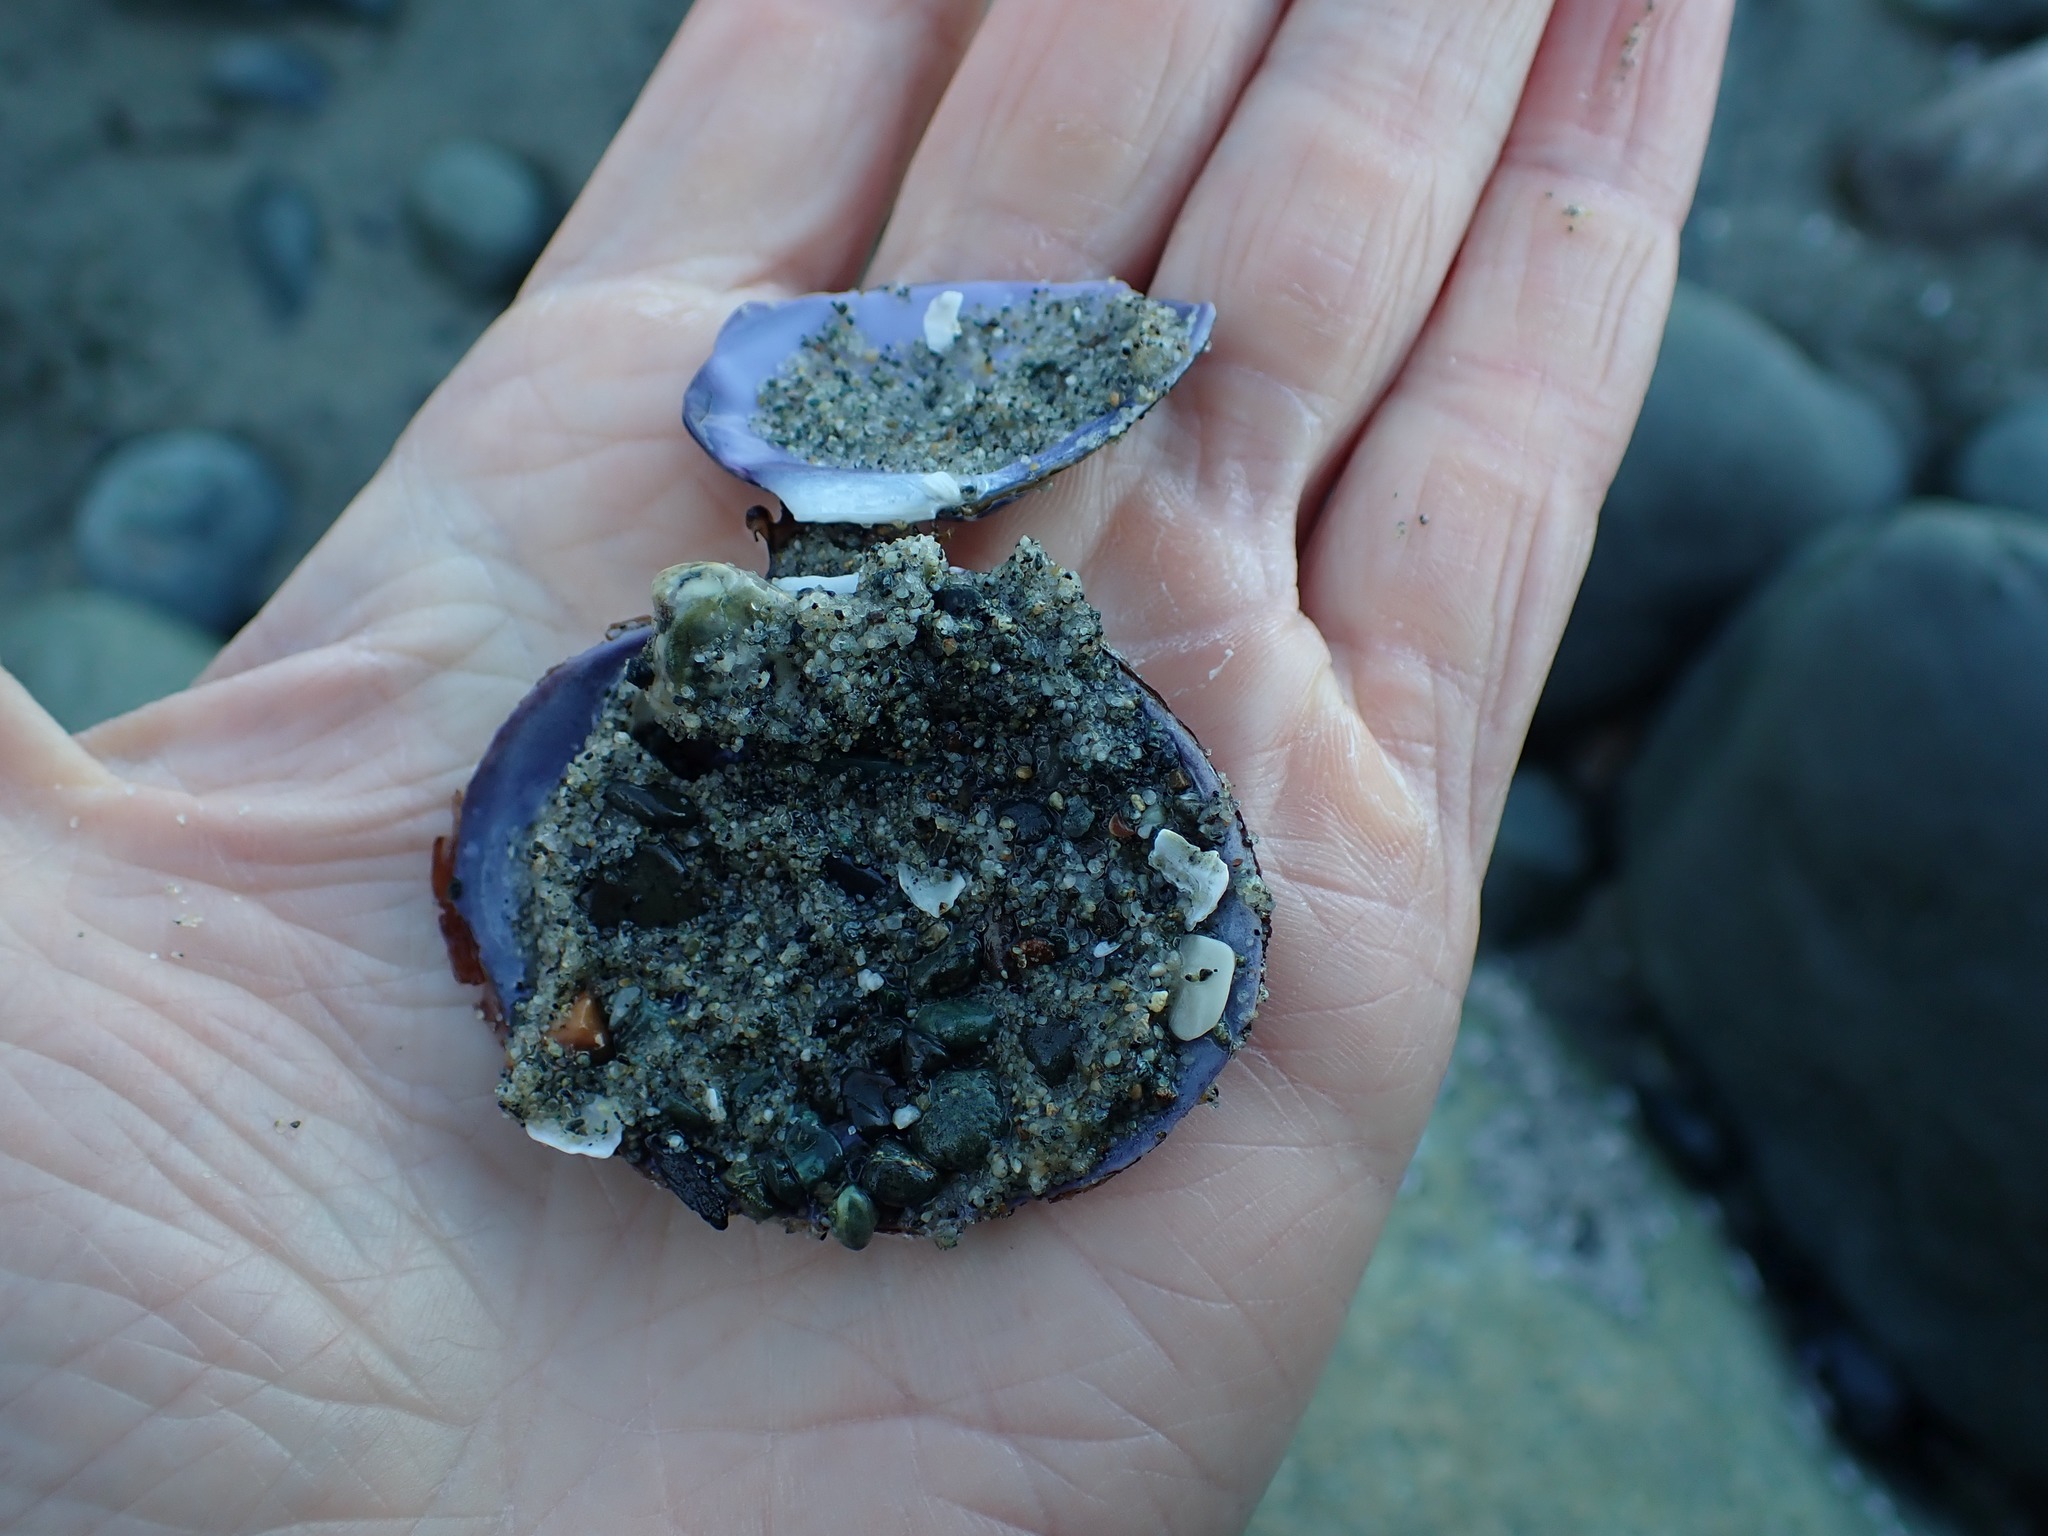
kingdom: Animalia
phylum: Mollusca
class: Bivalvia
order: Cardiida
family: Psammobiidae
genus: Nuttallia
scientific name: Nuttallia obscurata
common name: Purple mahogany-clam
